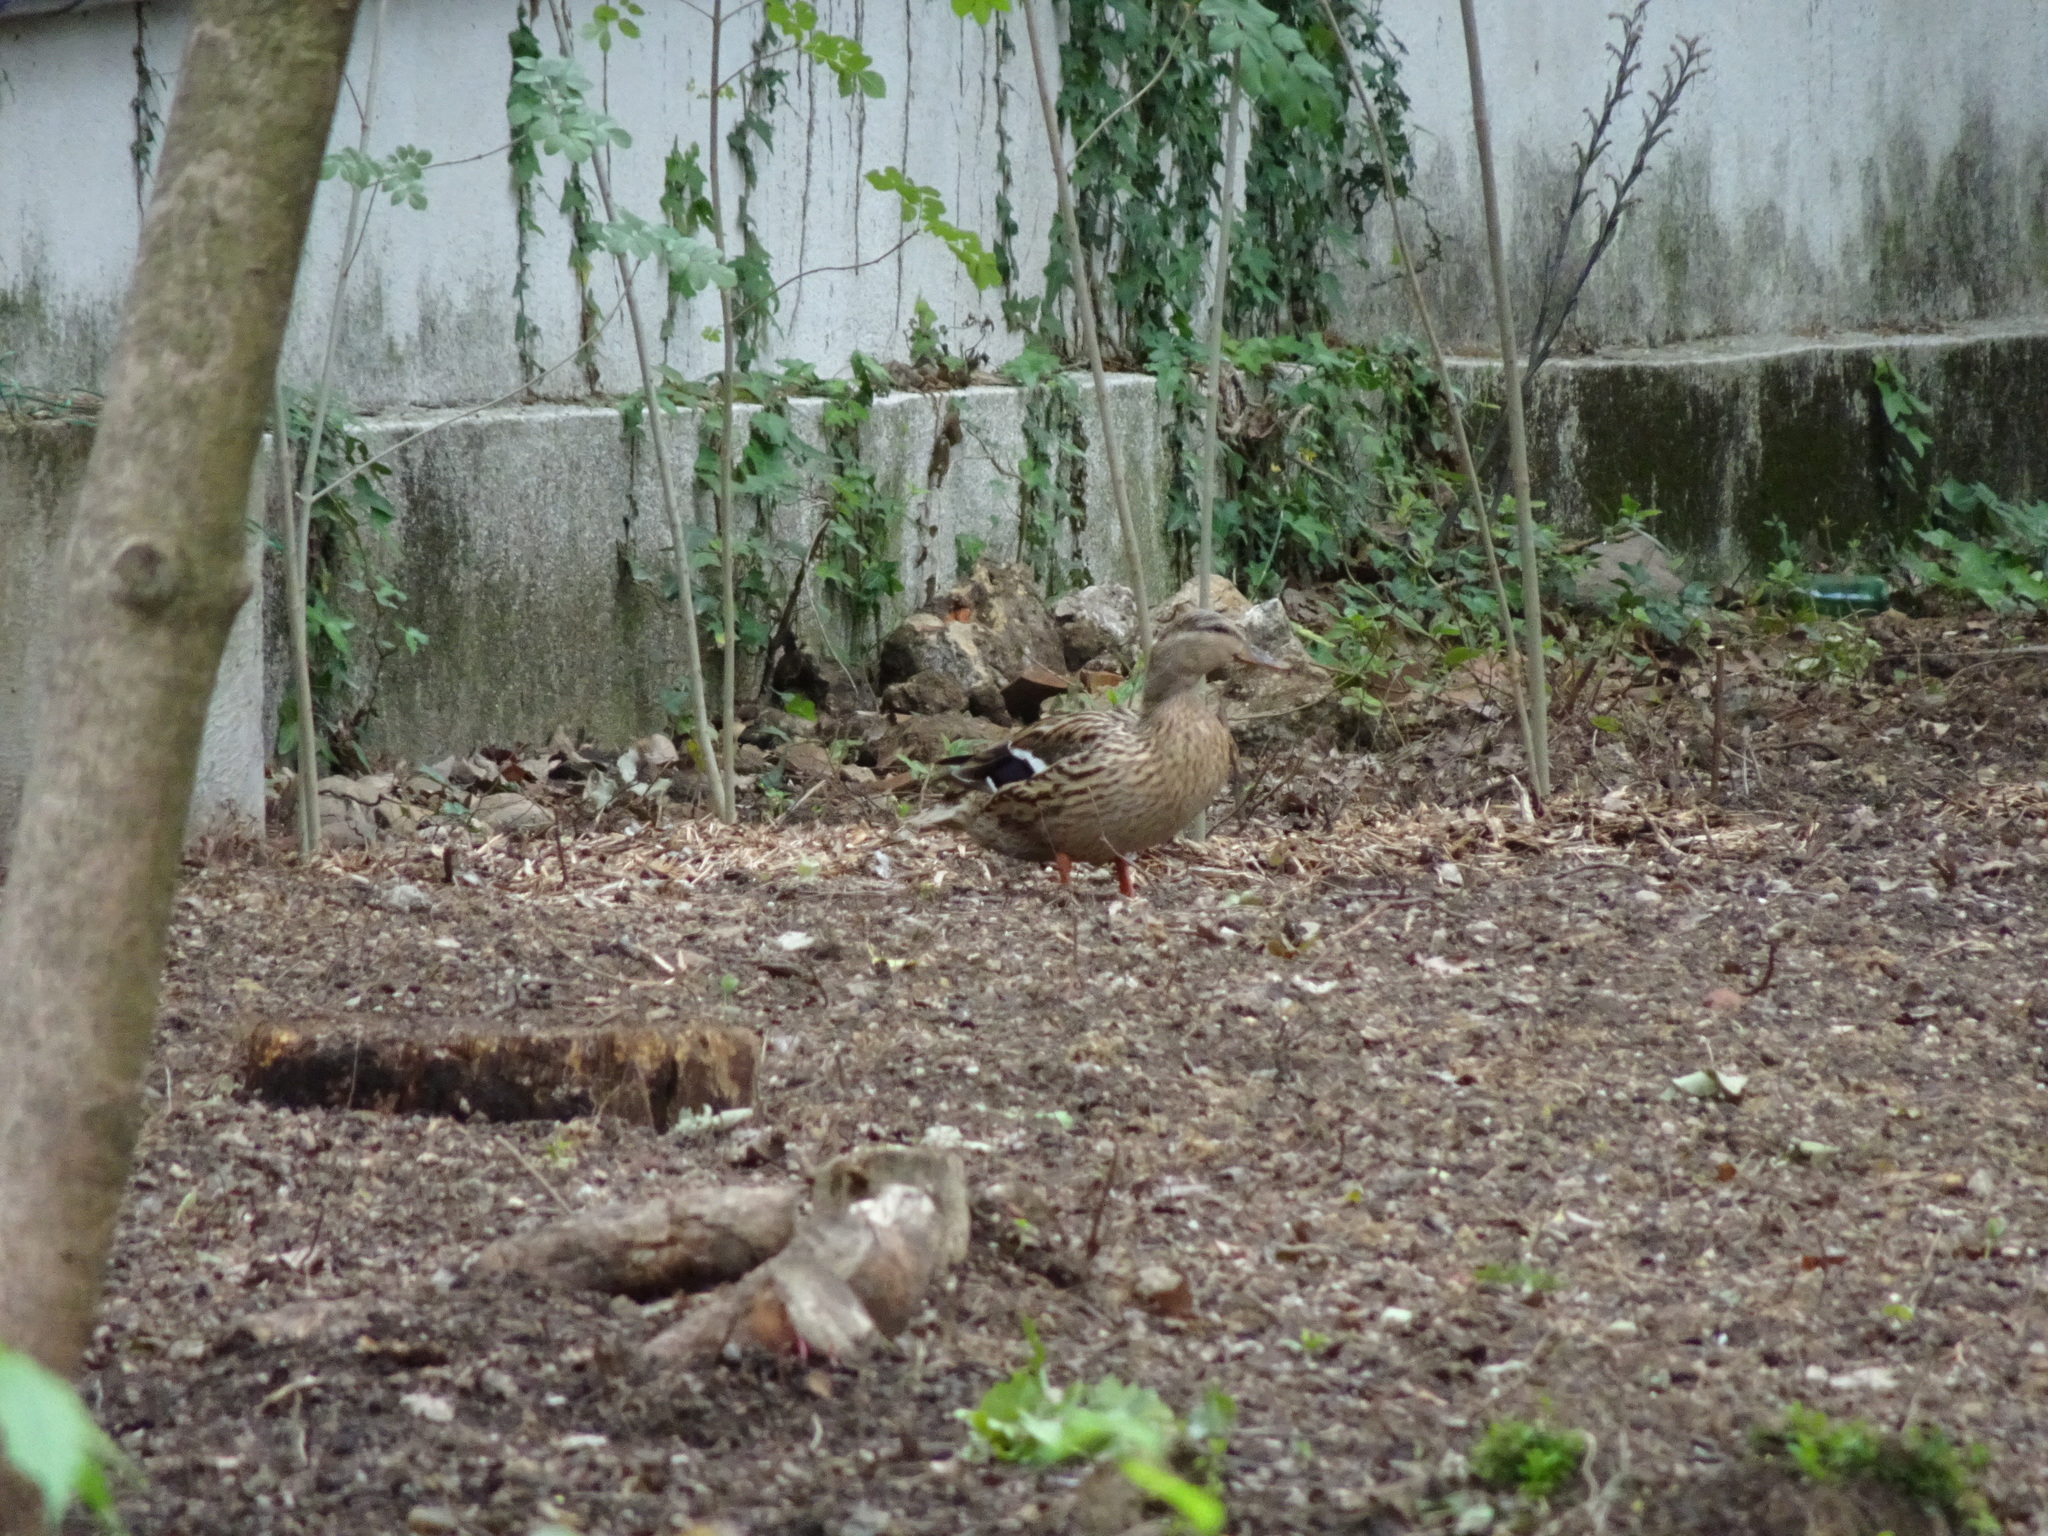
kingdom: Animalia
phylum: Chordata
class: Aves
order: Anseriformes
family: Anatidae
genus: Anas
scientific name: Anas platyrhynchos
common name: Mallard
